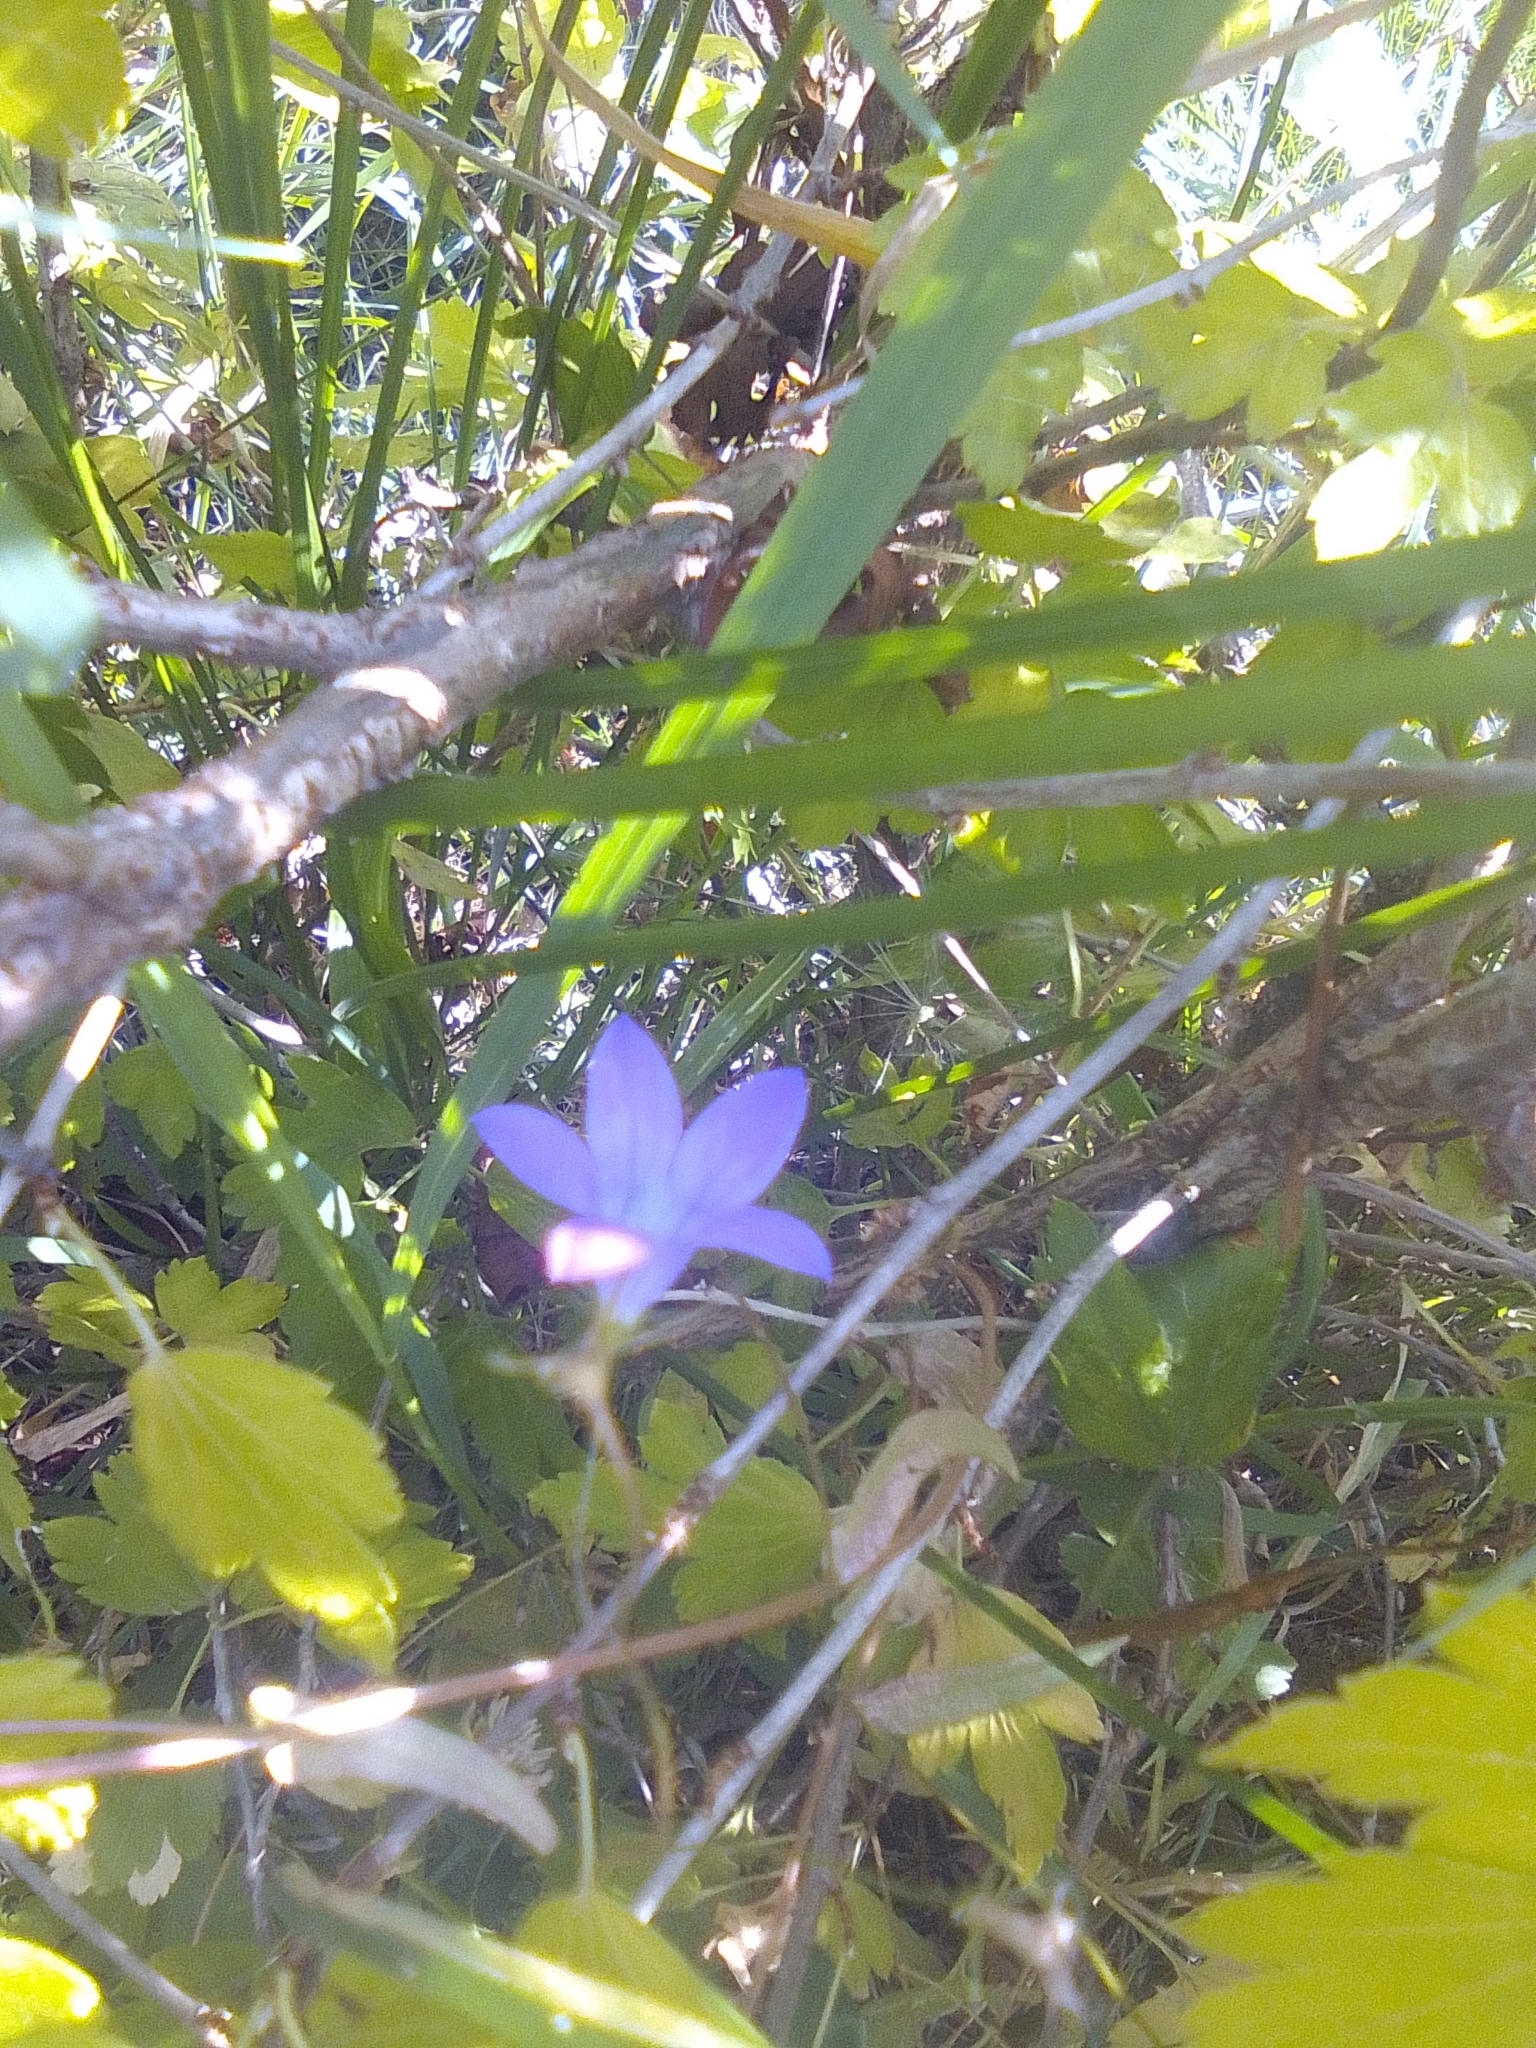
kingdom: Plantae
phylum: Tracheophyta
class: Magnoliopsida
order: Asterales
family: Campanulaceae
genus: Campanula
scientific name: Campanula patula
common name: Spreading bellflower
